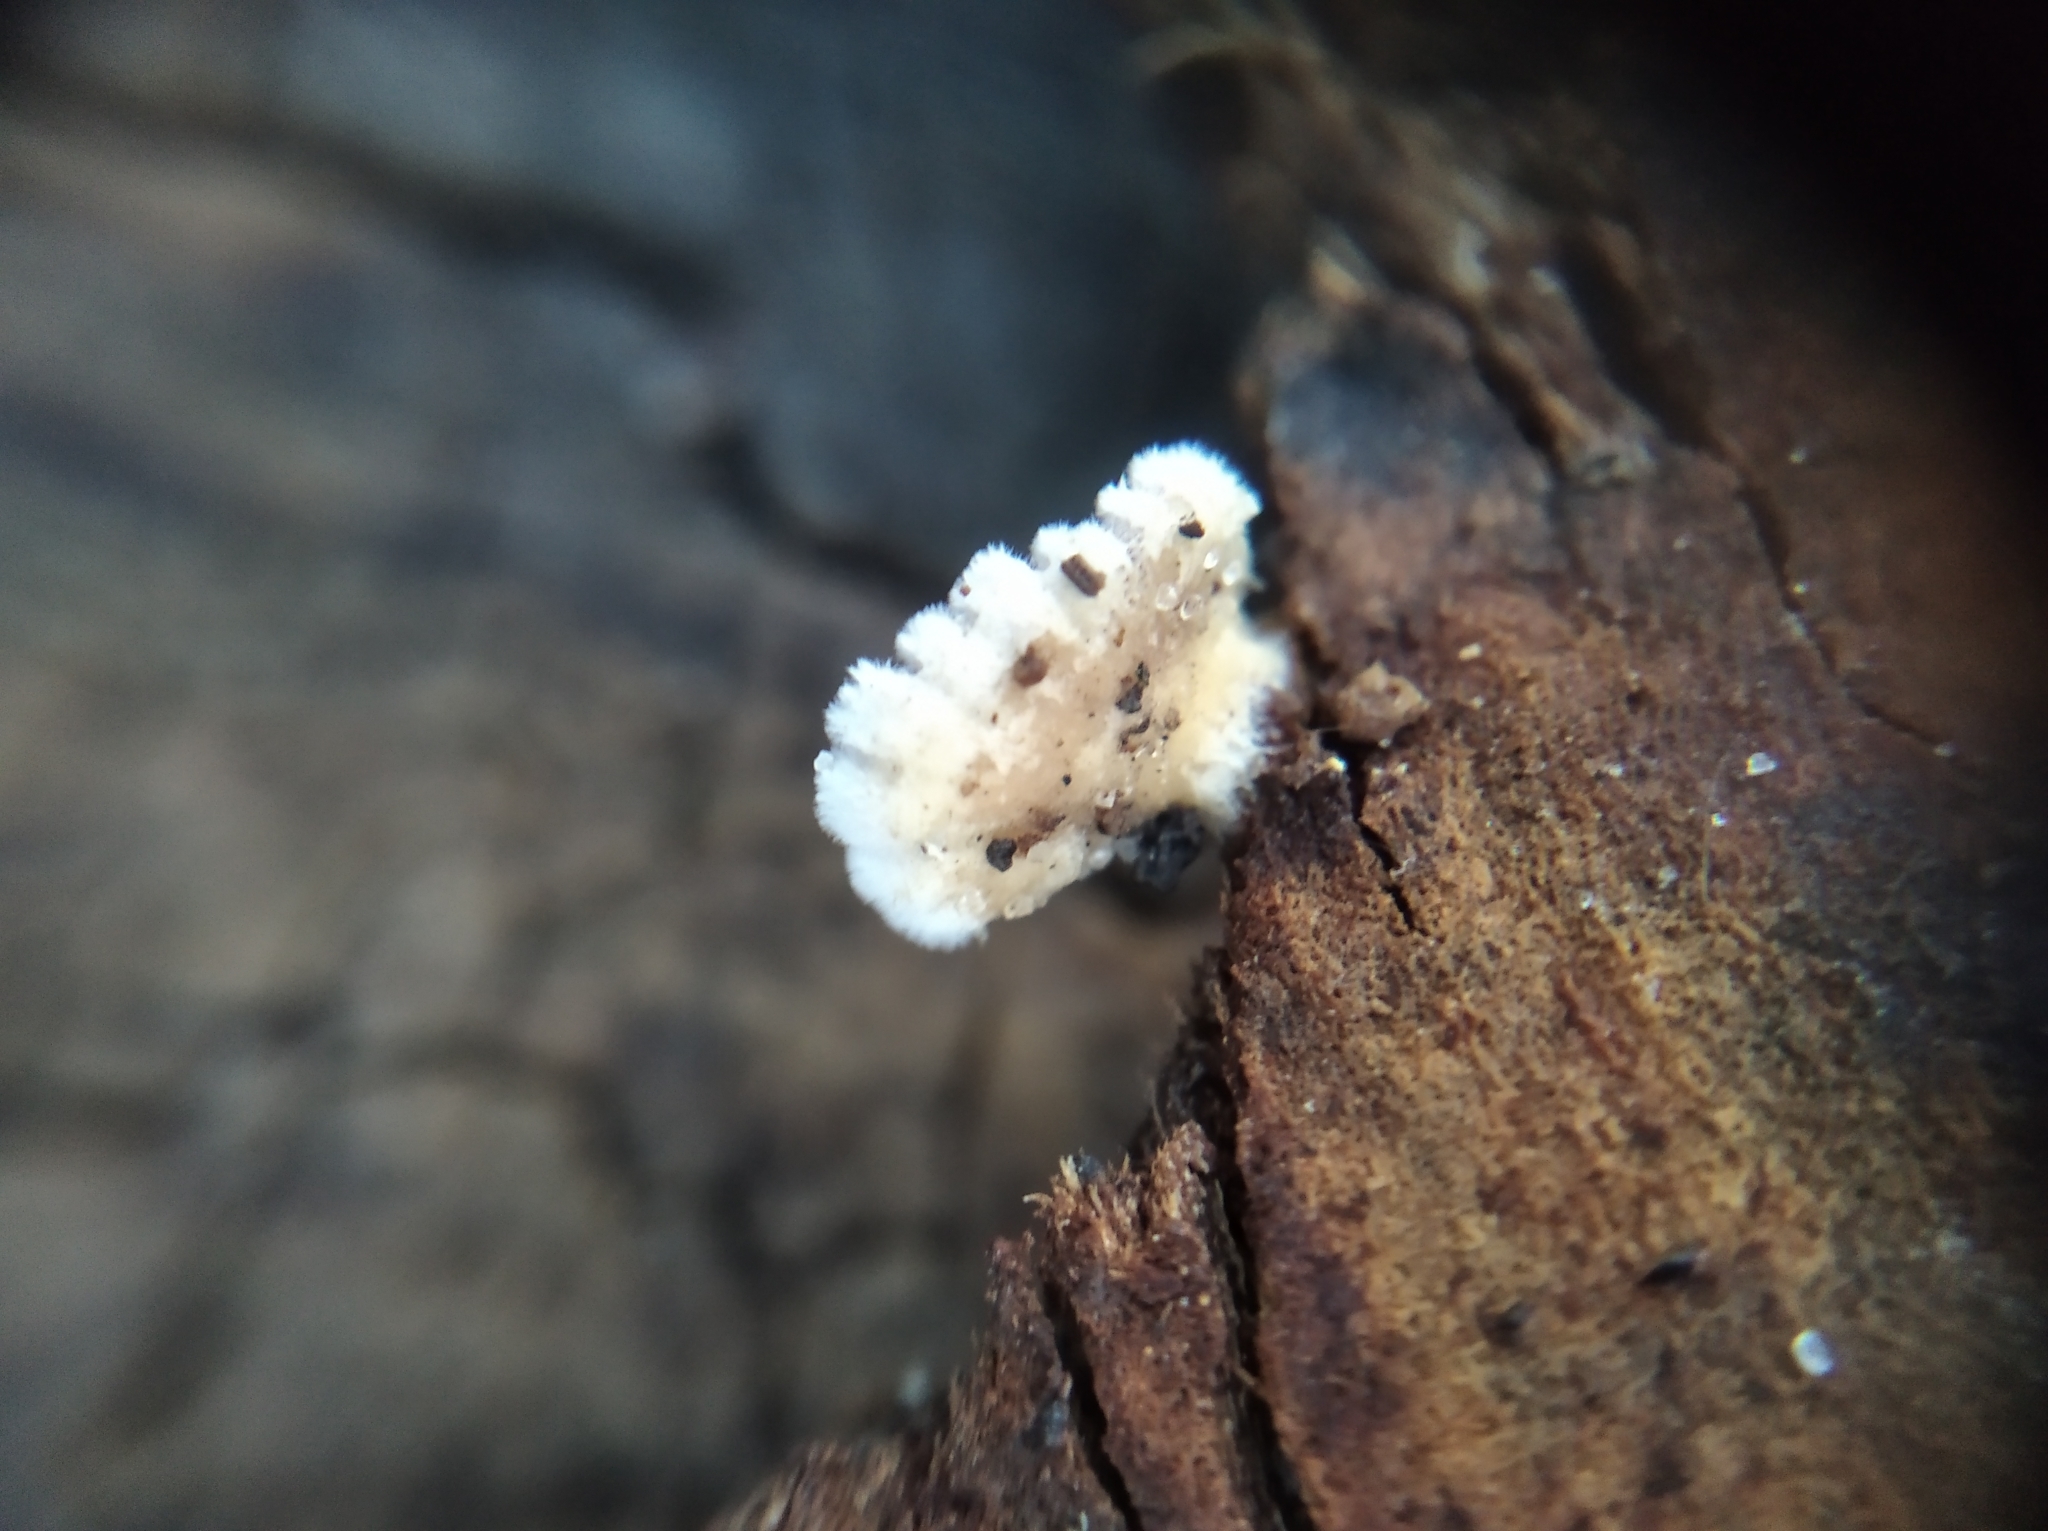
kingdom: Fungi
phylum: Basidiomycota
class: Agaricomycetes
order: Agaricales
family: Schizophyllaceae
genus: Schizophyllum
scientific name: Schizophyllum commune
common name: Common porecrust
